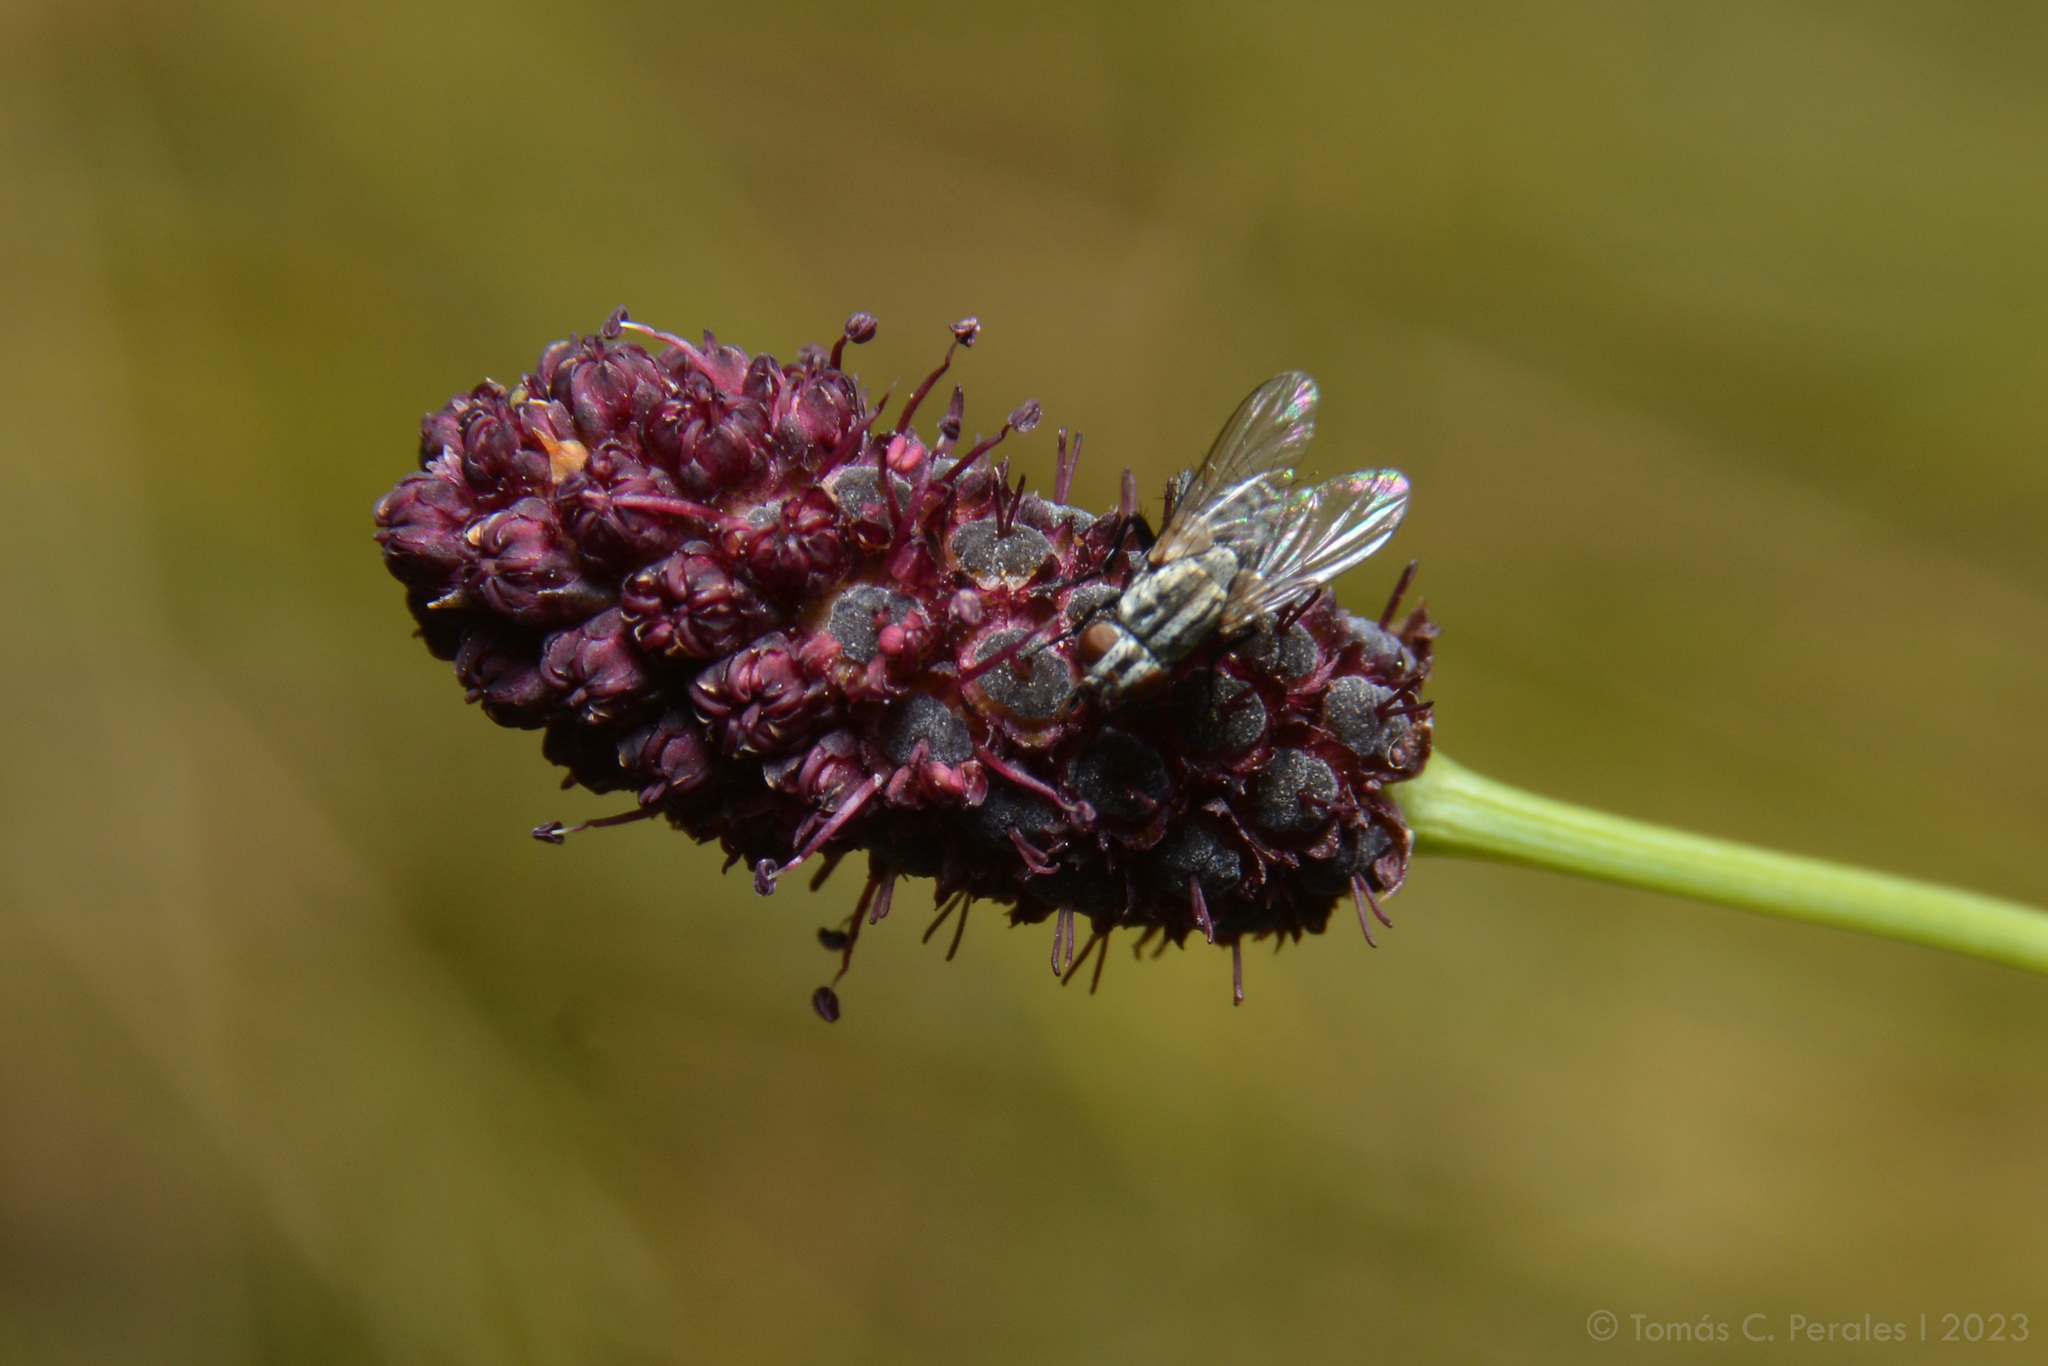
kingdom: Plantae
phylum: Tracheophyta
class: Magnoliopsida
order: Apiales
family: Apiaceae
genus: Eryngium
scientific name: Eryngium ebracteatum
